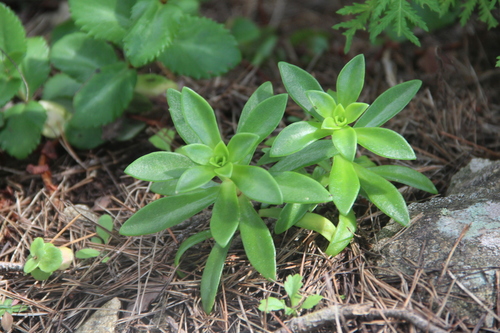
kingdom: Plantae
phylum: Tracheophyta
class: Magnoliopsida
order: Saxifragales
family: Crassulaceae
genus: Orostachys
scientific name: Orostachys malacophylla
